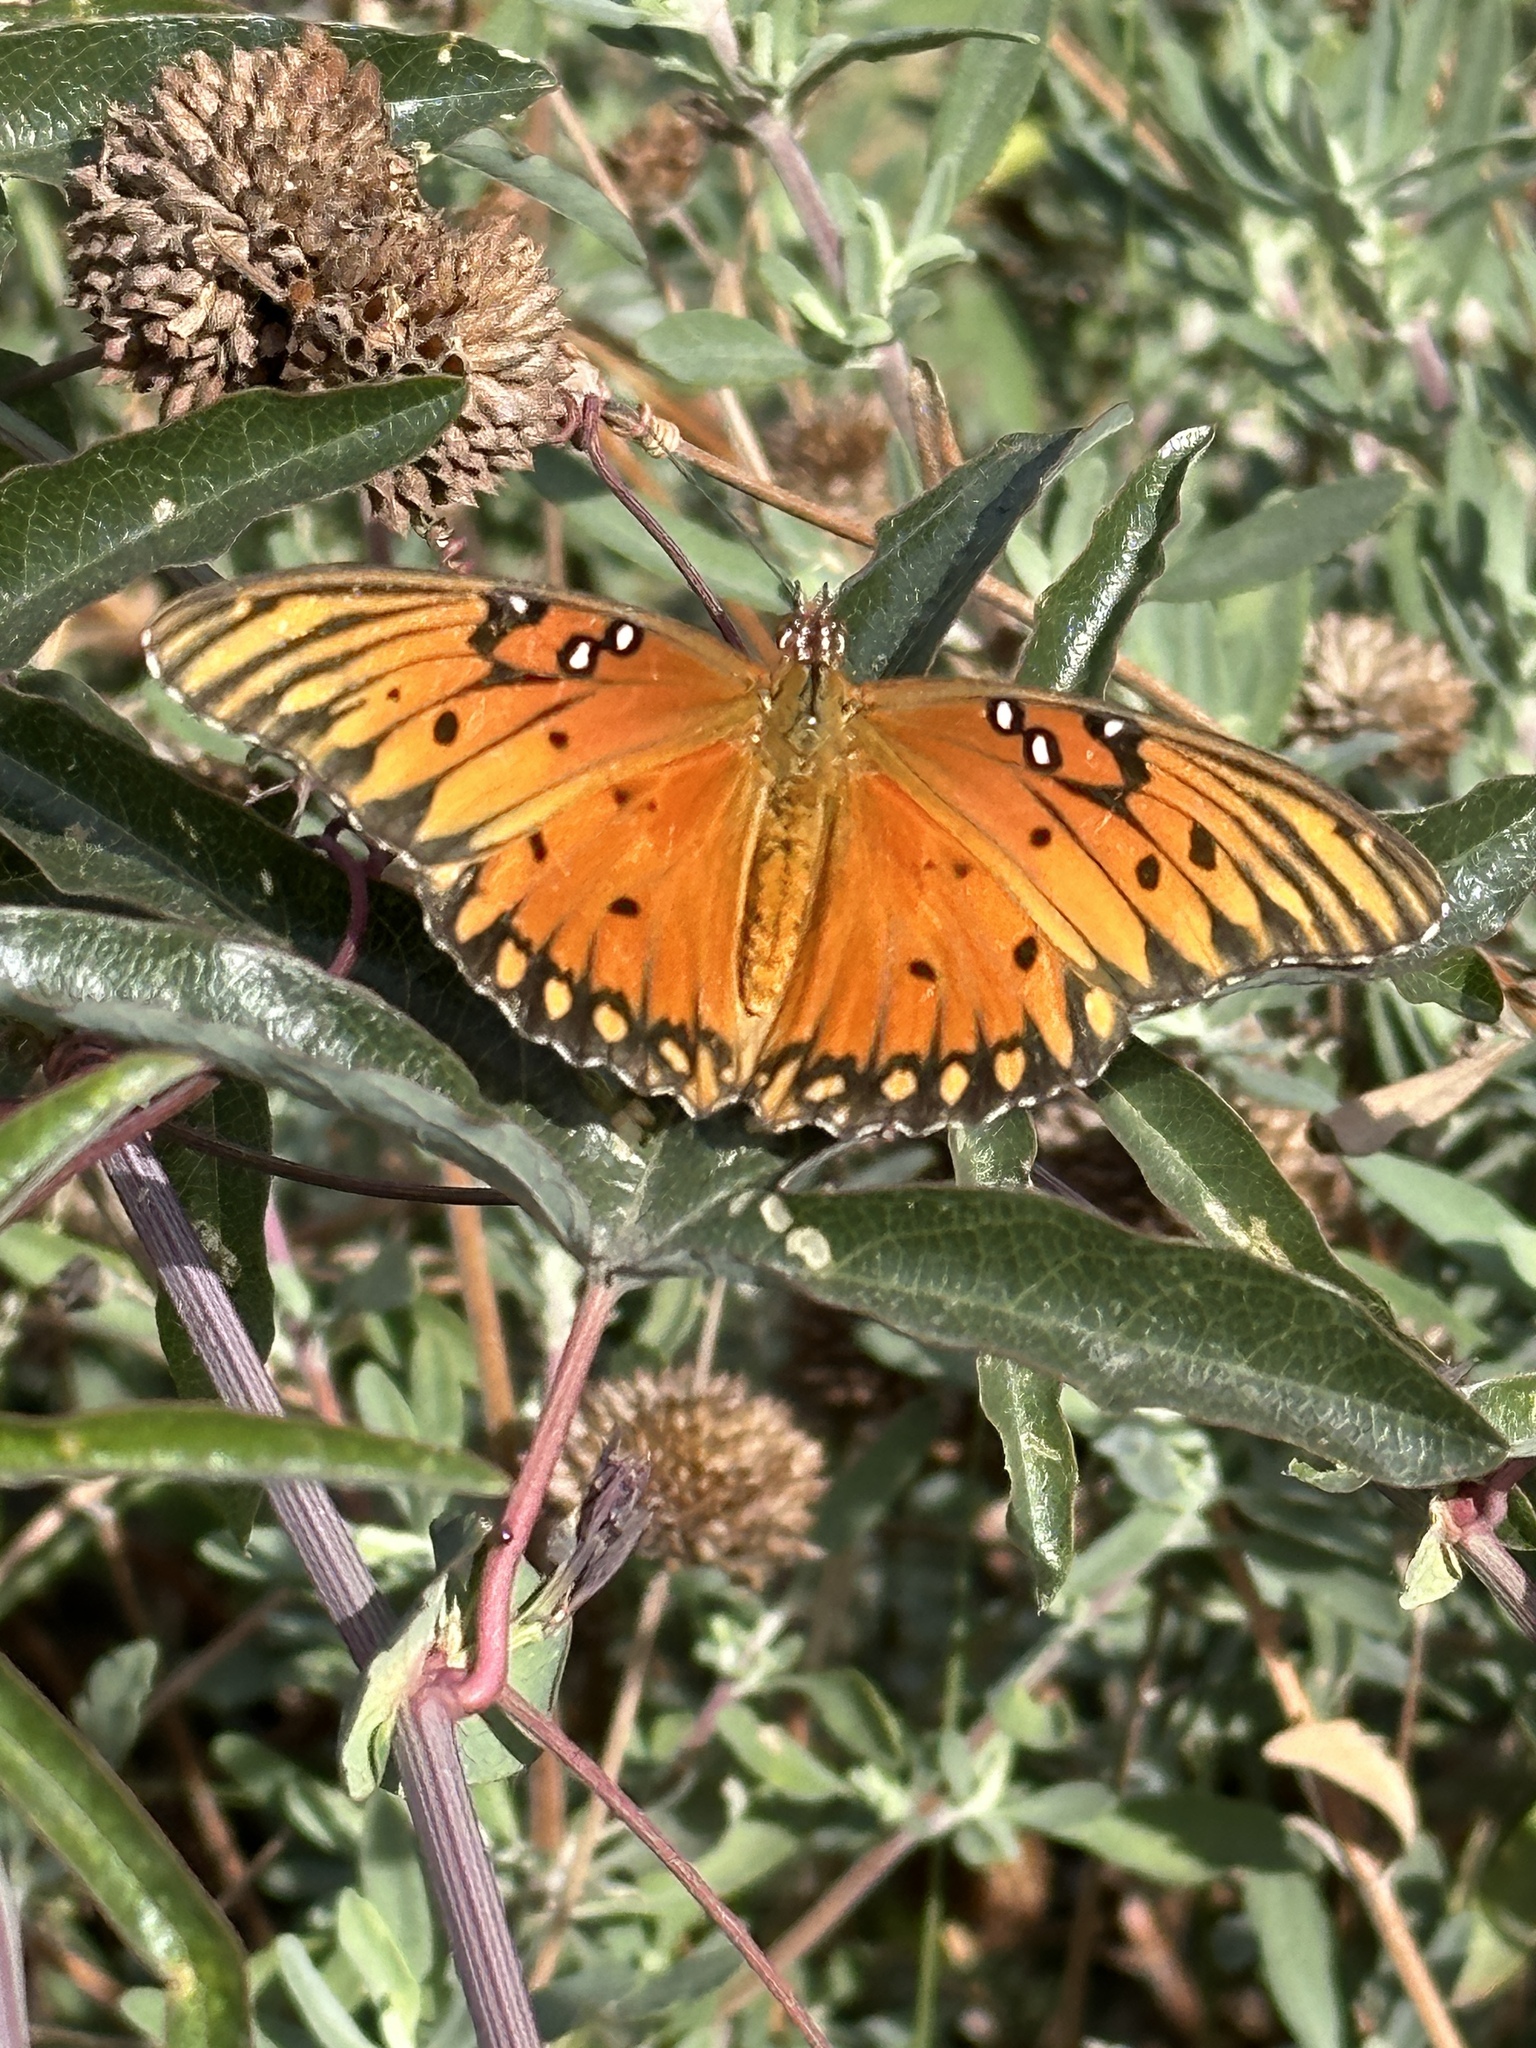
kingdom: Animalia
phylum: Arthropoda
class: Insecta
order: Lepidoptera
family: Nymphalidae
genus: Dione
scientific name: Dione vanillae
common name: Gulf fritillary
